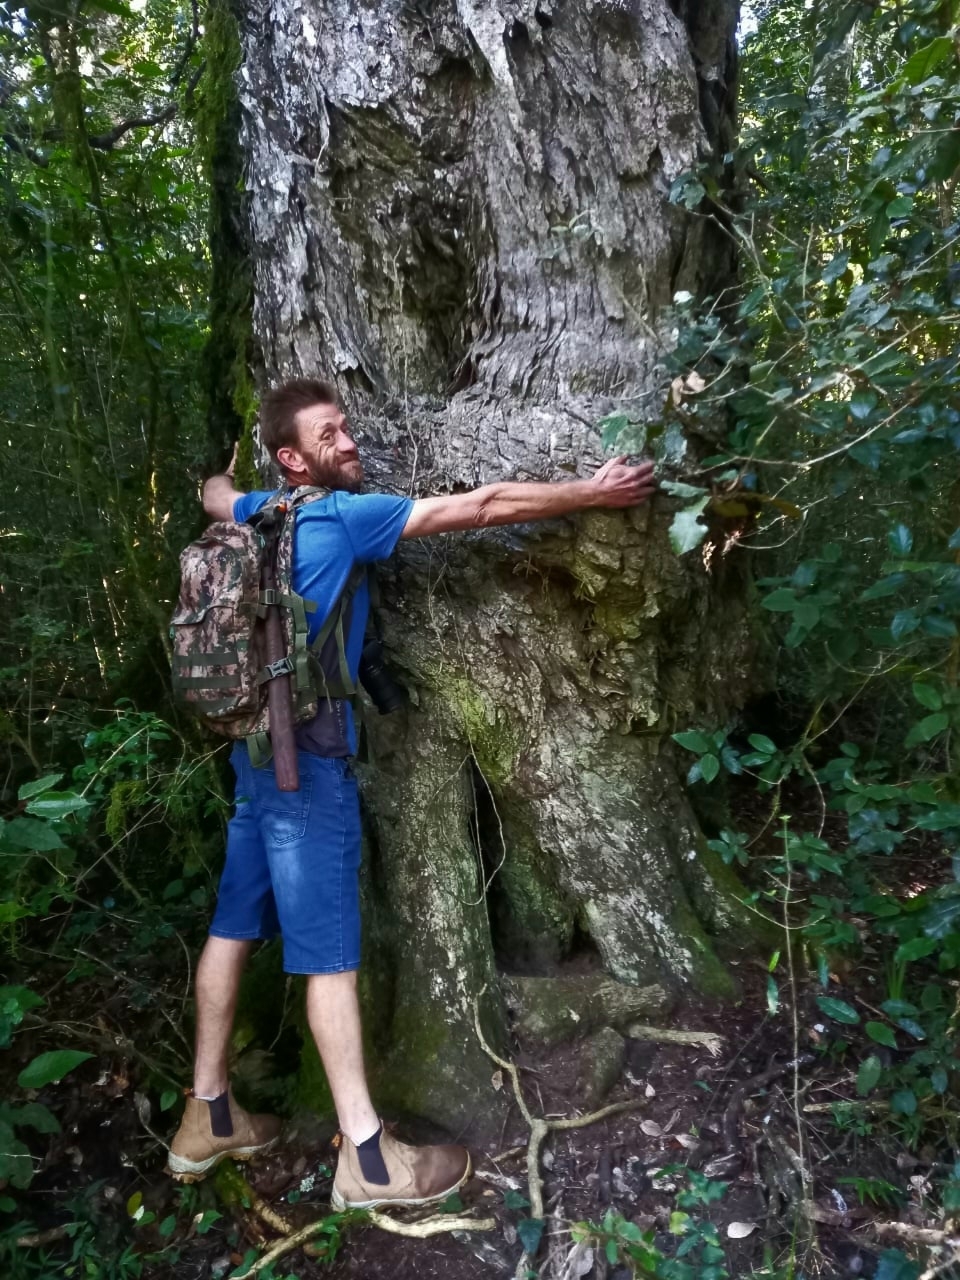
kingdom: Plantae
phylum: Tracheophyta
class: Pinopsida
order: Pinales
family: Podocarpaceae
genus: Afrocarpus
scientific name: Afrocarpus falcatus
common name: Bastard yellowwood
